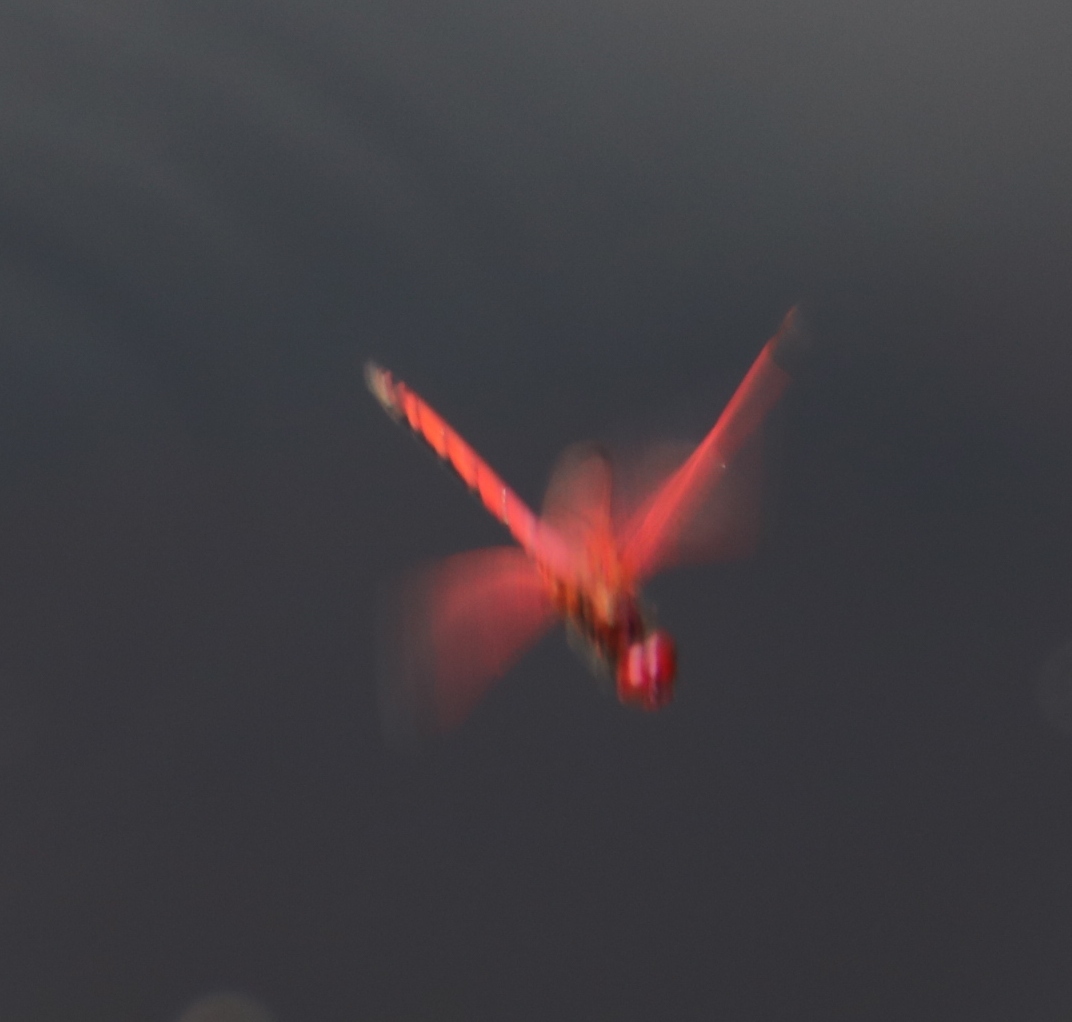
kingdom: Animalia
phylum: Arthropoda
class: Insecta
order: Odonata
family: Libellulidae
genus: Trithemis
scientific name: Trithemis arteriosa
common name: Red-veined dropwing
